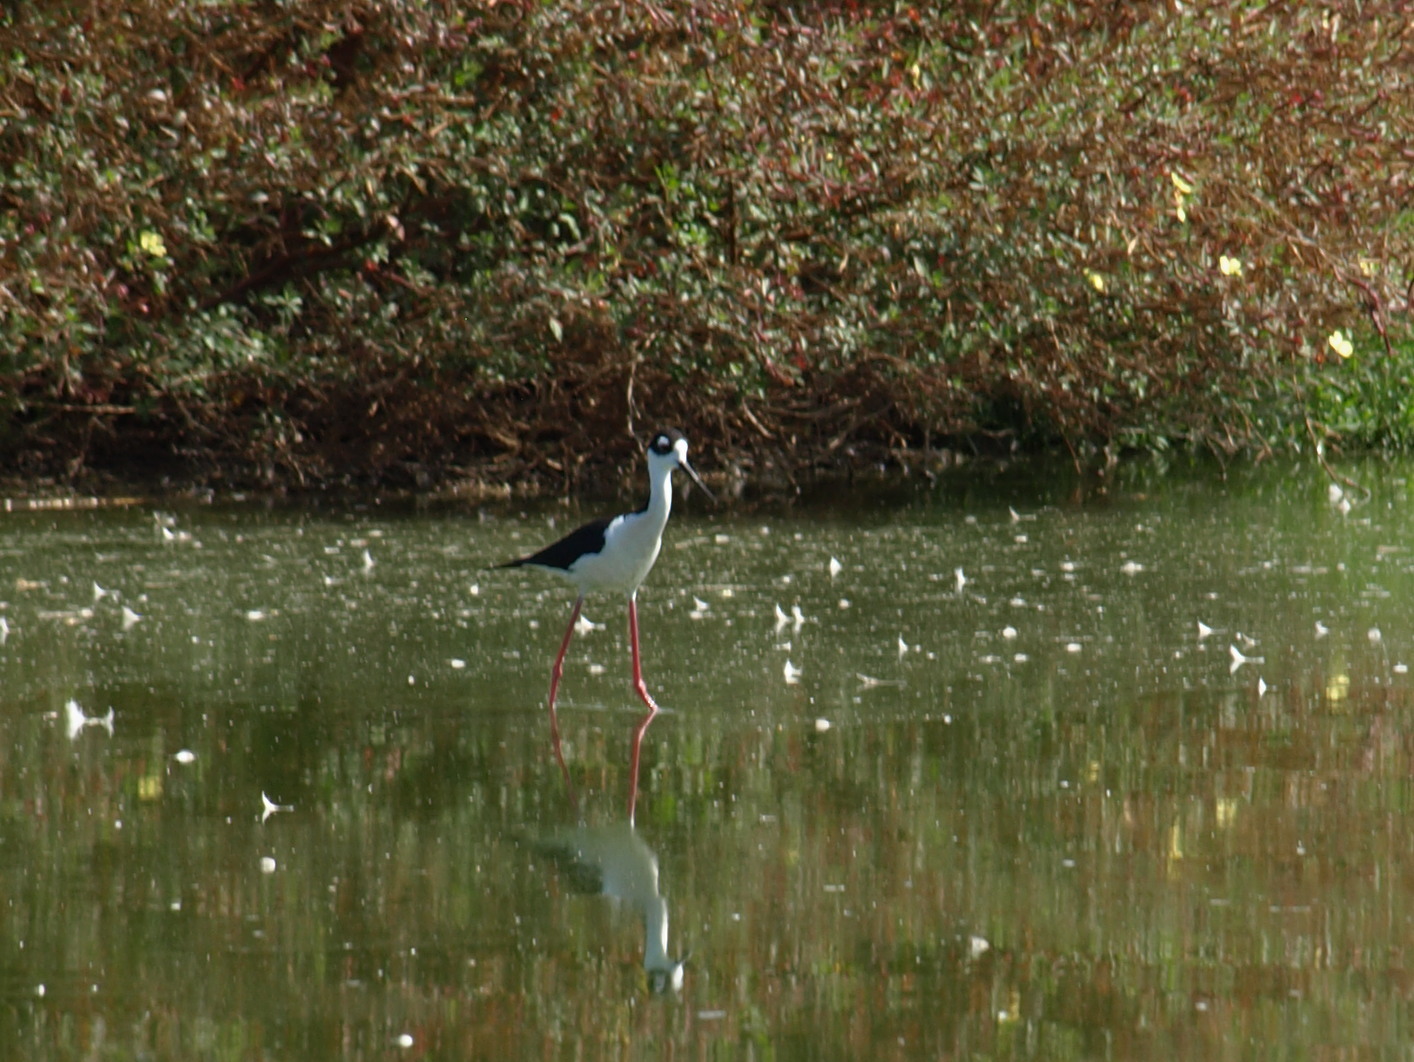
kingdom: Animalia
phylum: Chordata
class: Aves
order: Charadriiformes
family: Recurvirostridae
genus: Himantopus
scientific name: Himantopus mexicanus
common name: Black-necked stilt
